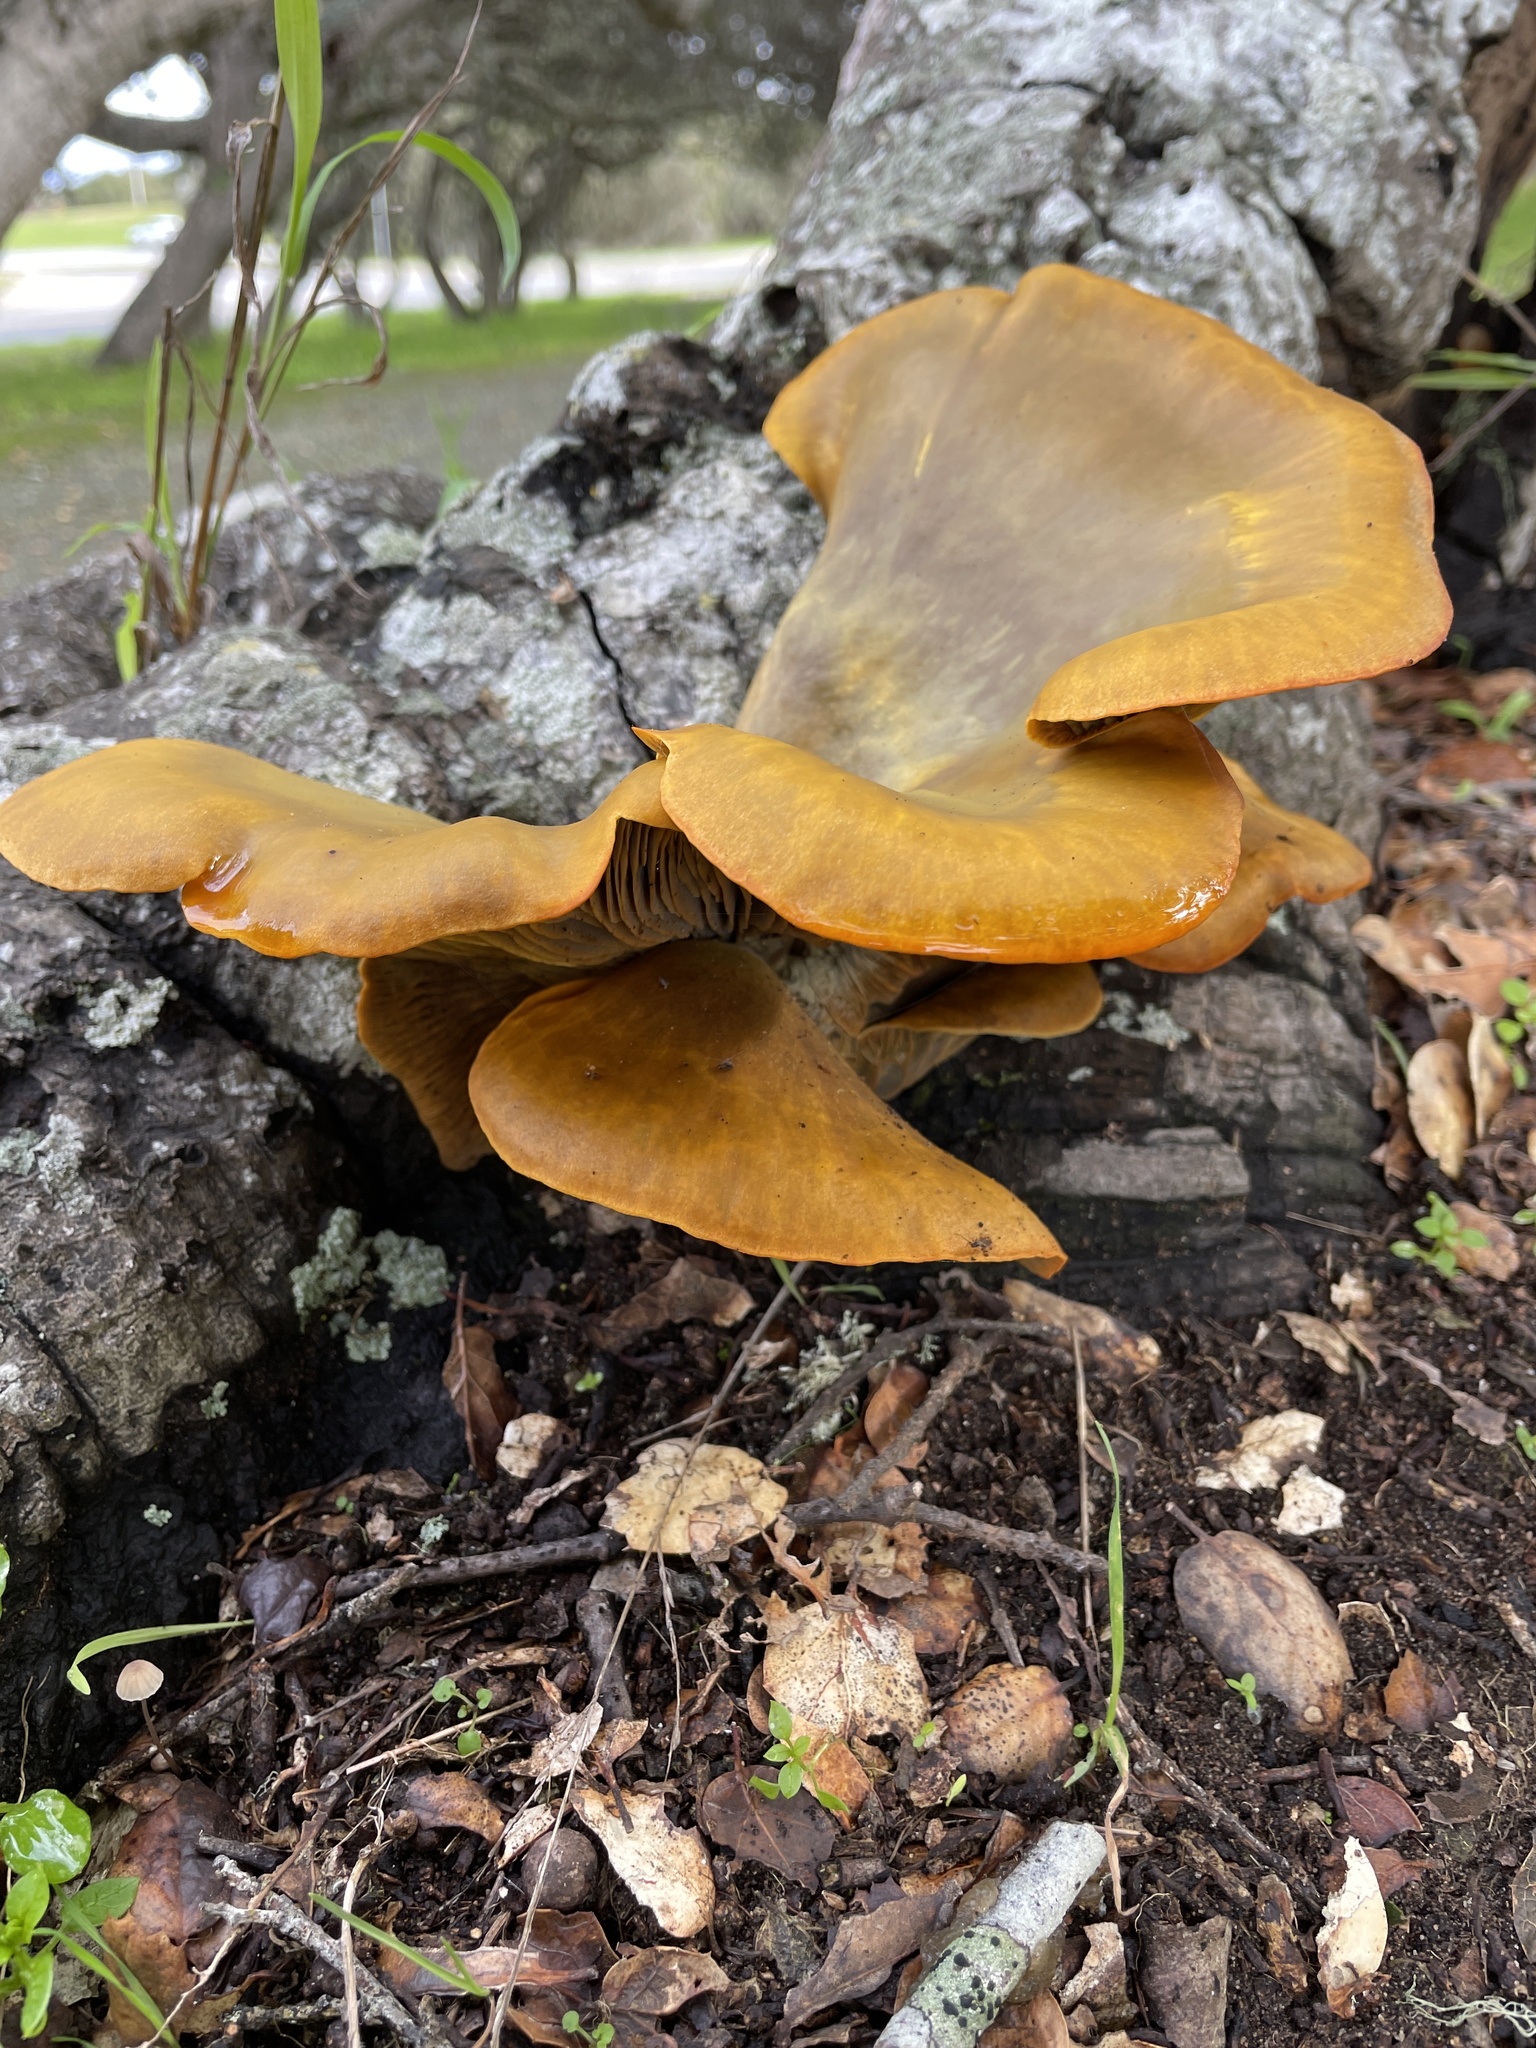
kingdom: Fungi
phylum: Basidiomycota
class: Agaricomycetes
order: Agaricales
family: Omphalotaceae
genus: Omphalotus
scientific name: Omphalotus olivascens
